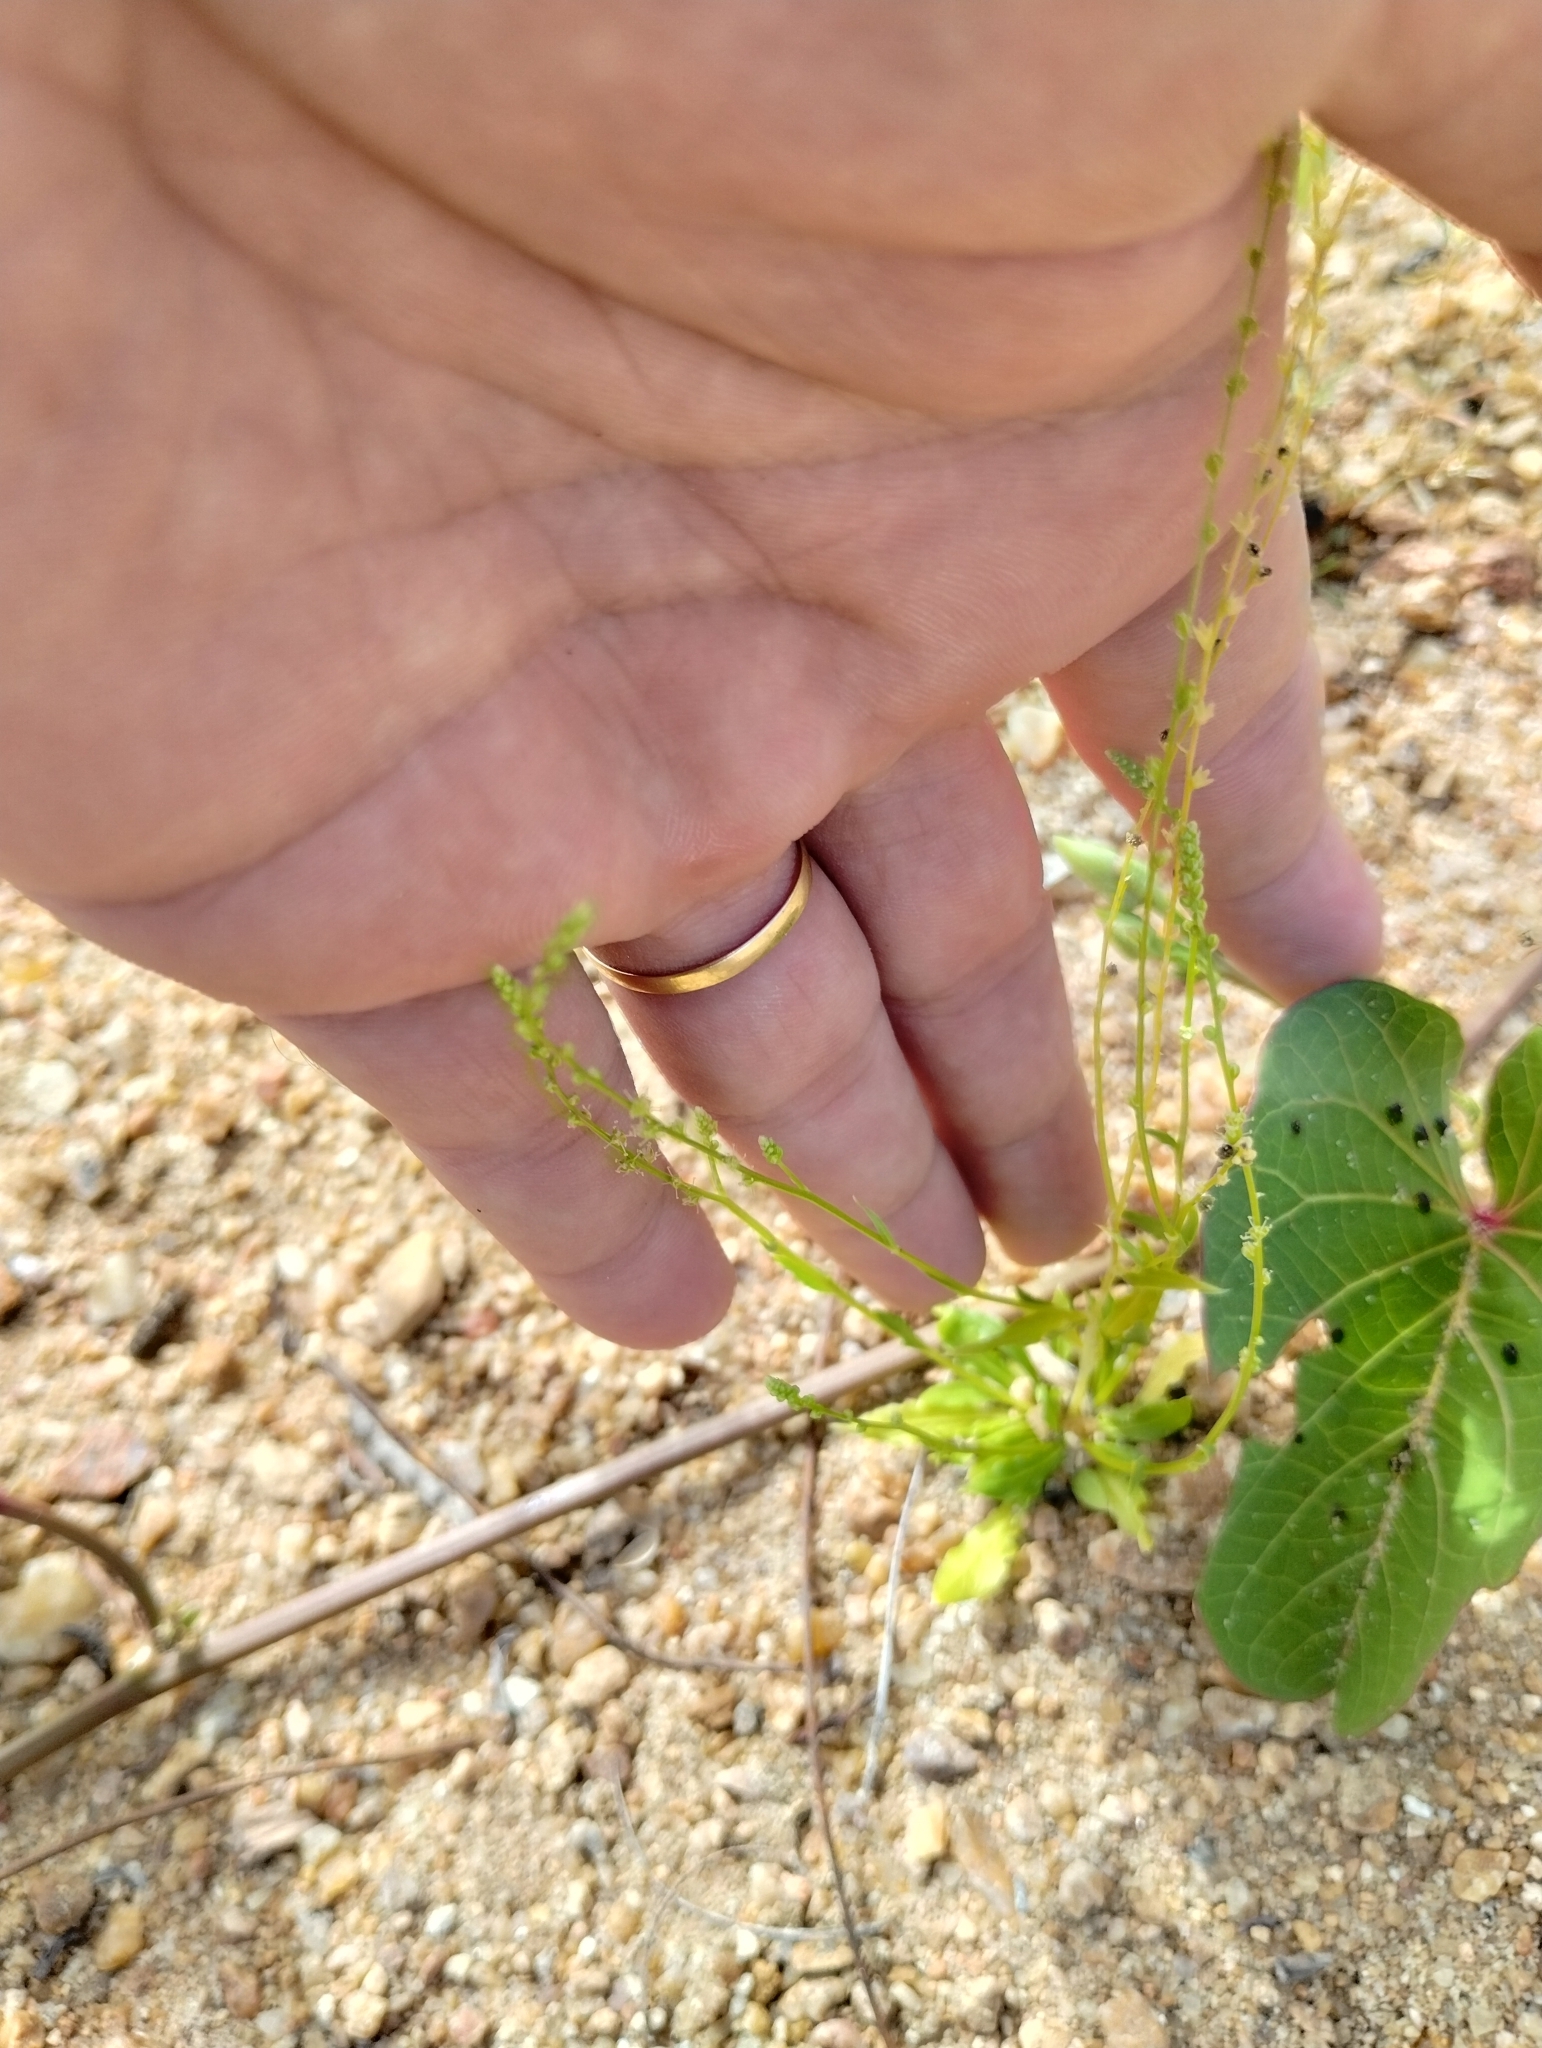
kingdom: Plantae
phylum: Tracheophyta
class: Magnoliopsida
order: Caryophyllales
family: Microteaceae
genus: Microtea
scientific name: Microtea celosioides
